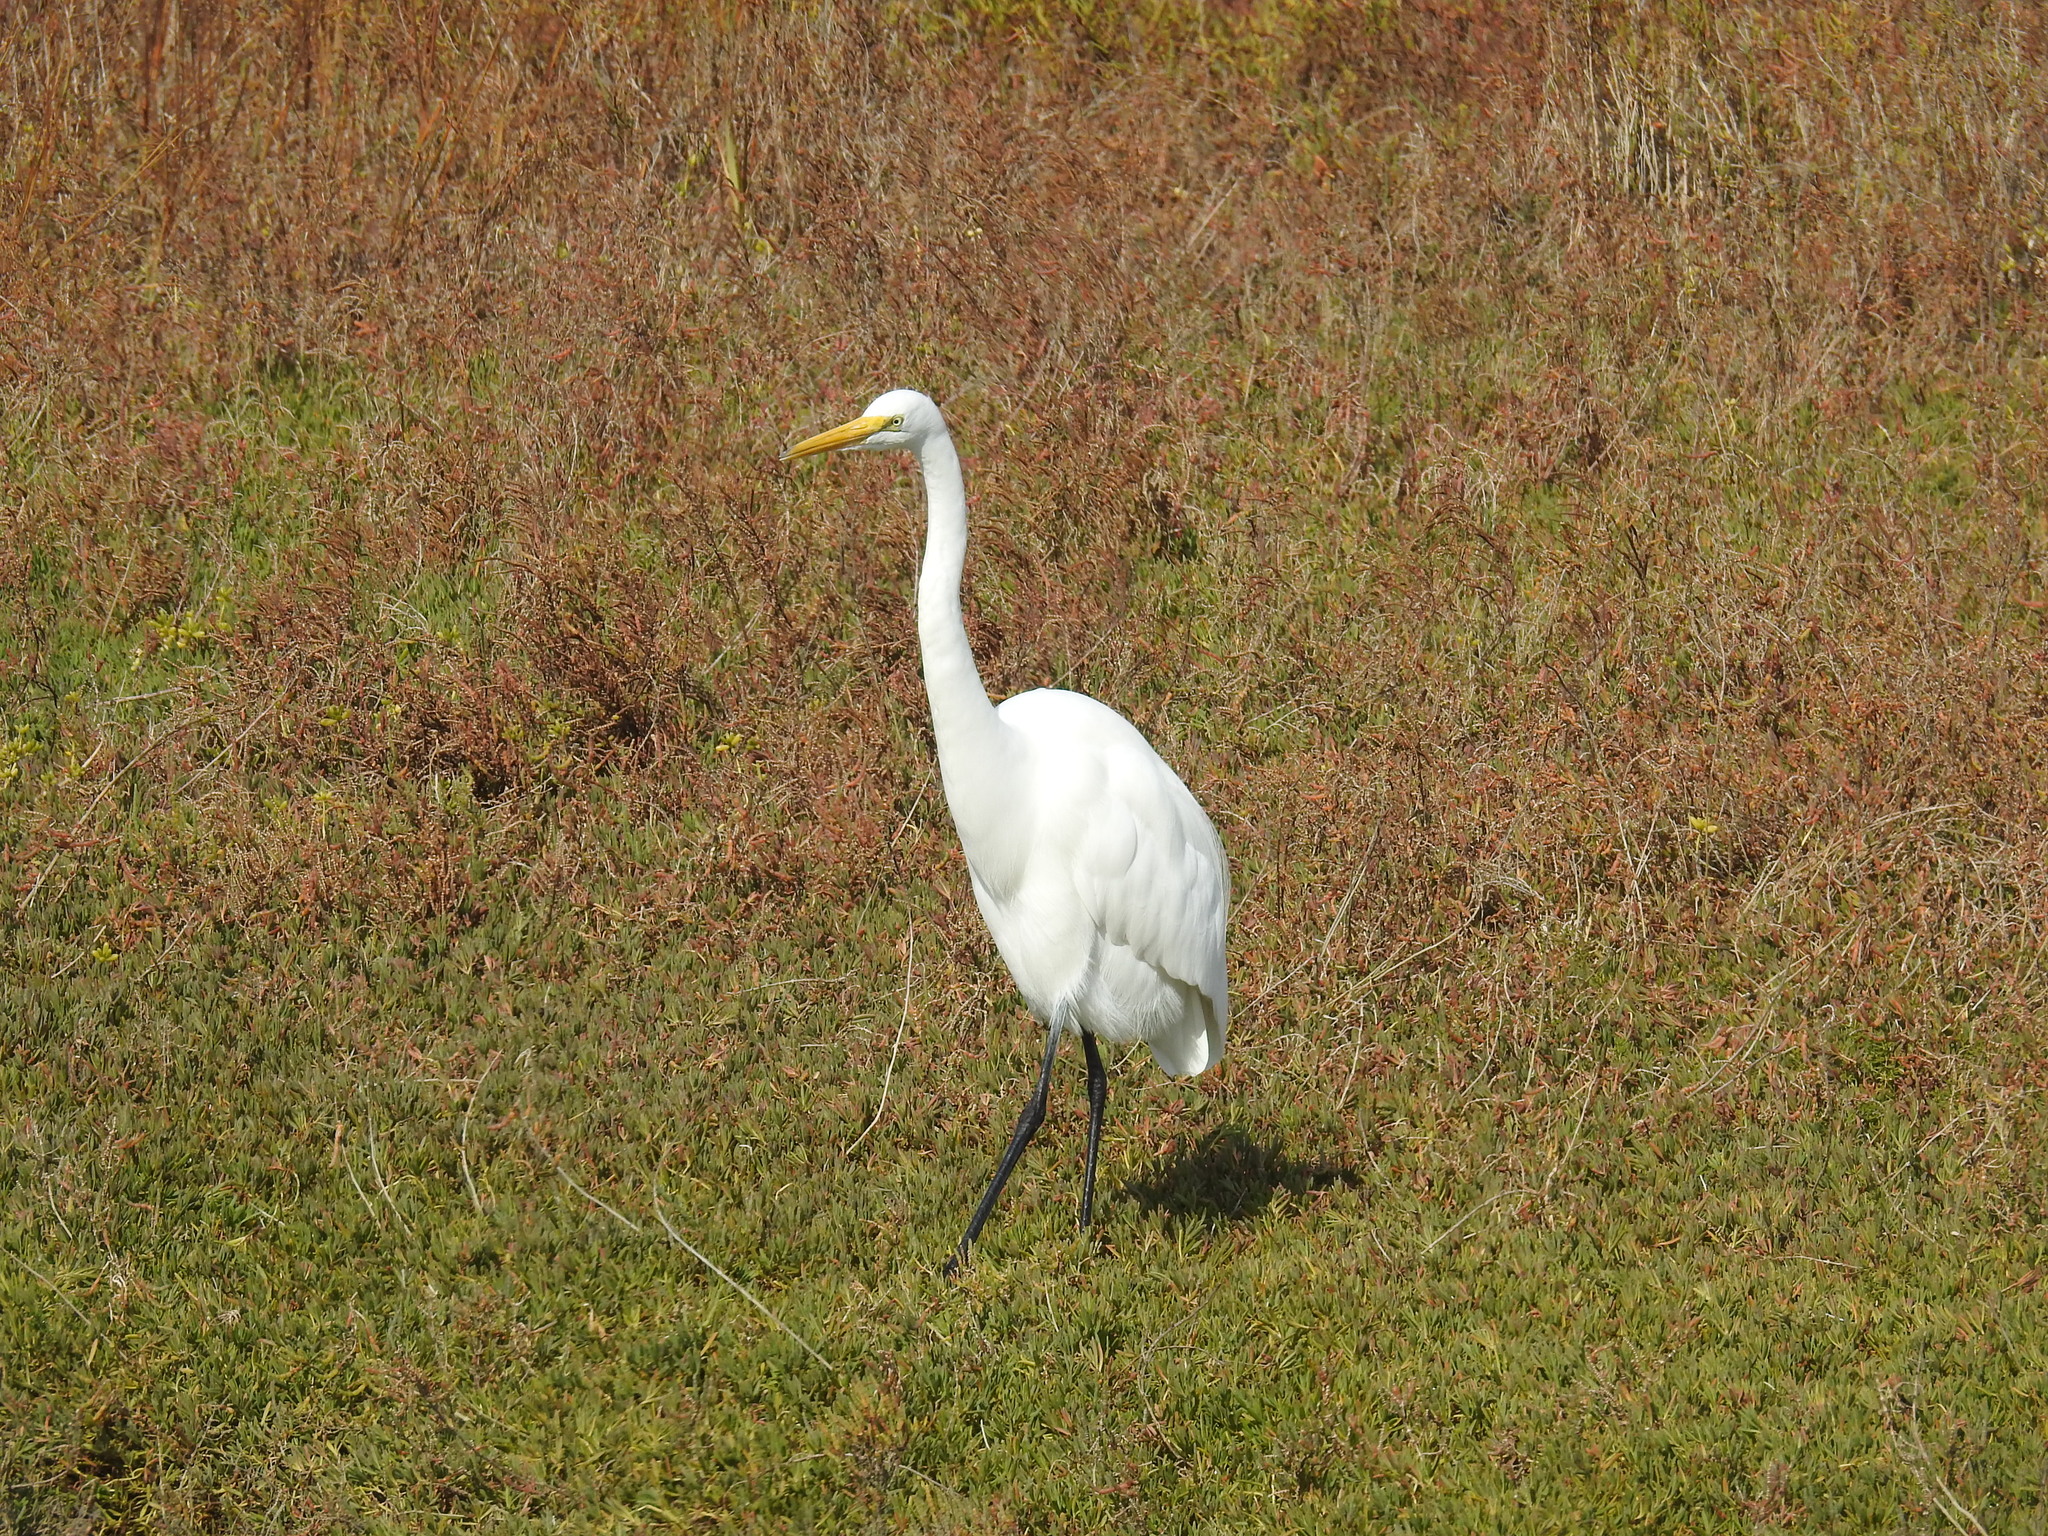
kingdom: Animalia
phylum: Chordata
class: Aves
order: Pelecaniformes
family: Ardeidae
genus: Ardea
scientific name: Ardea alba
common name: Great egret
